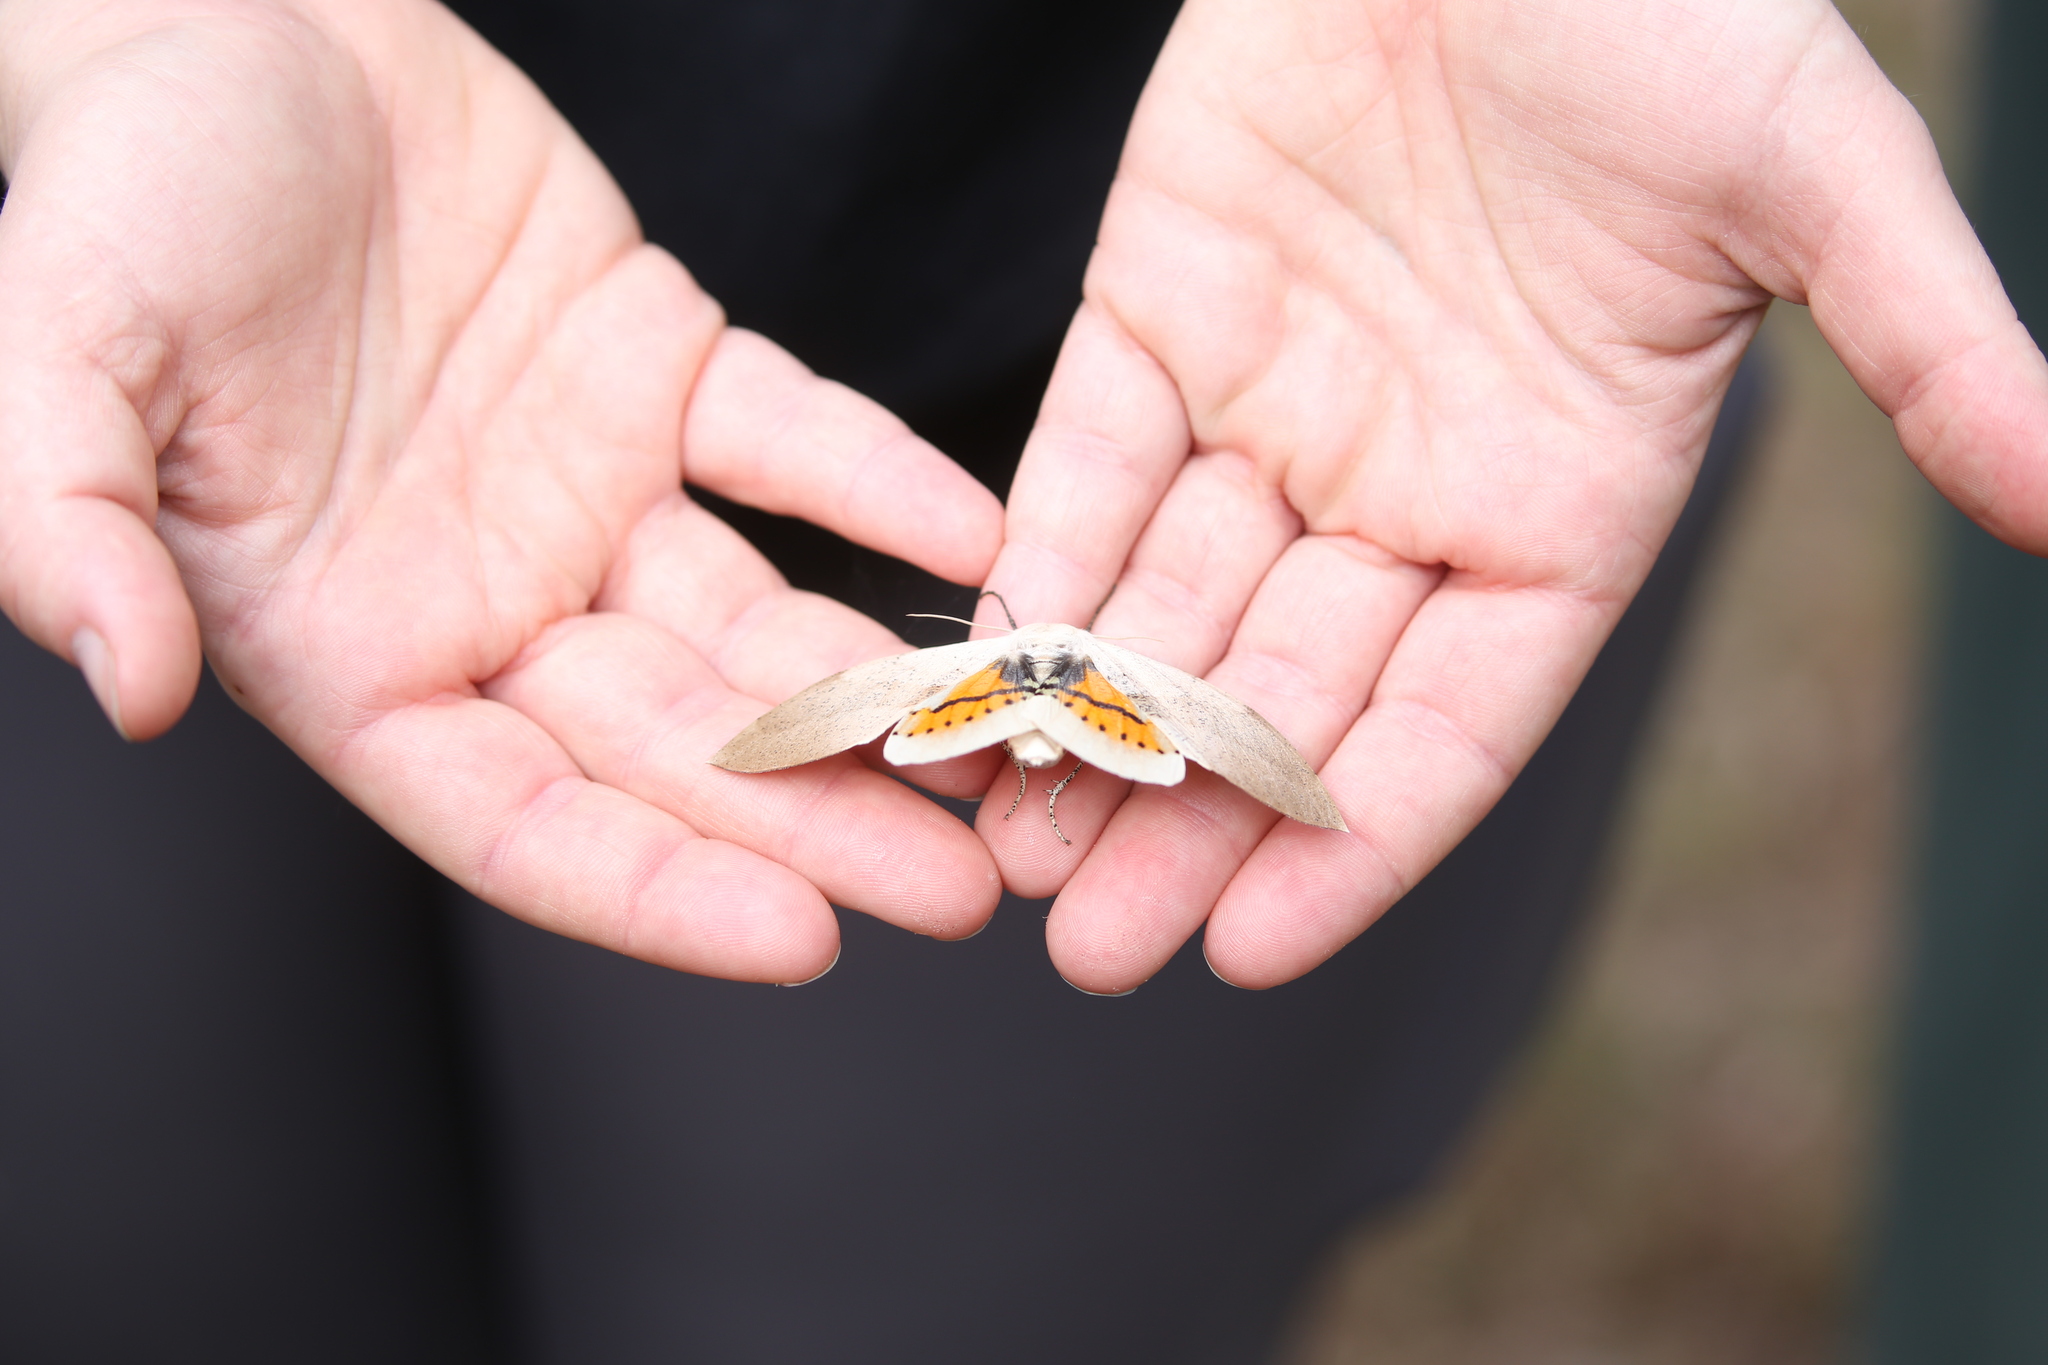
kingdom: Animalia
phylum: Arthropoda
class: Insecta
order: Lepidoptera
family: Geometridae
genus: Gastrophora
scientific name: Gastrophora henricaria
